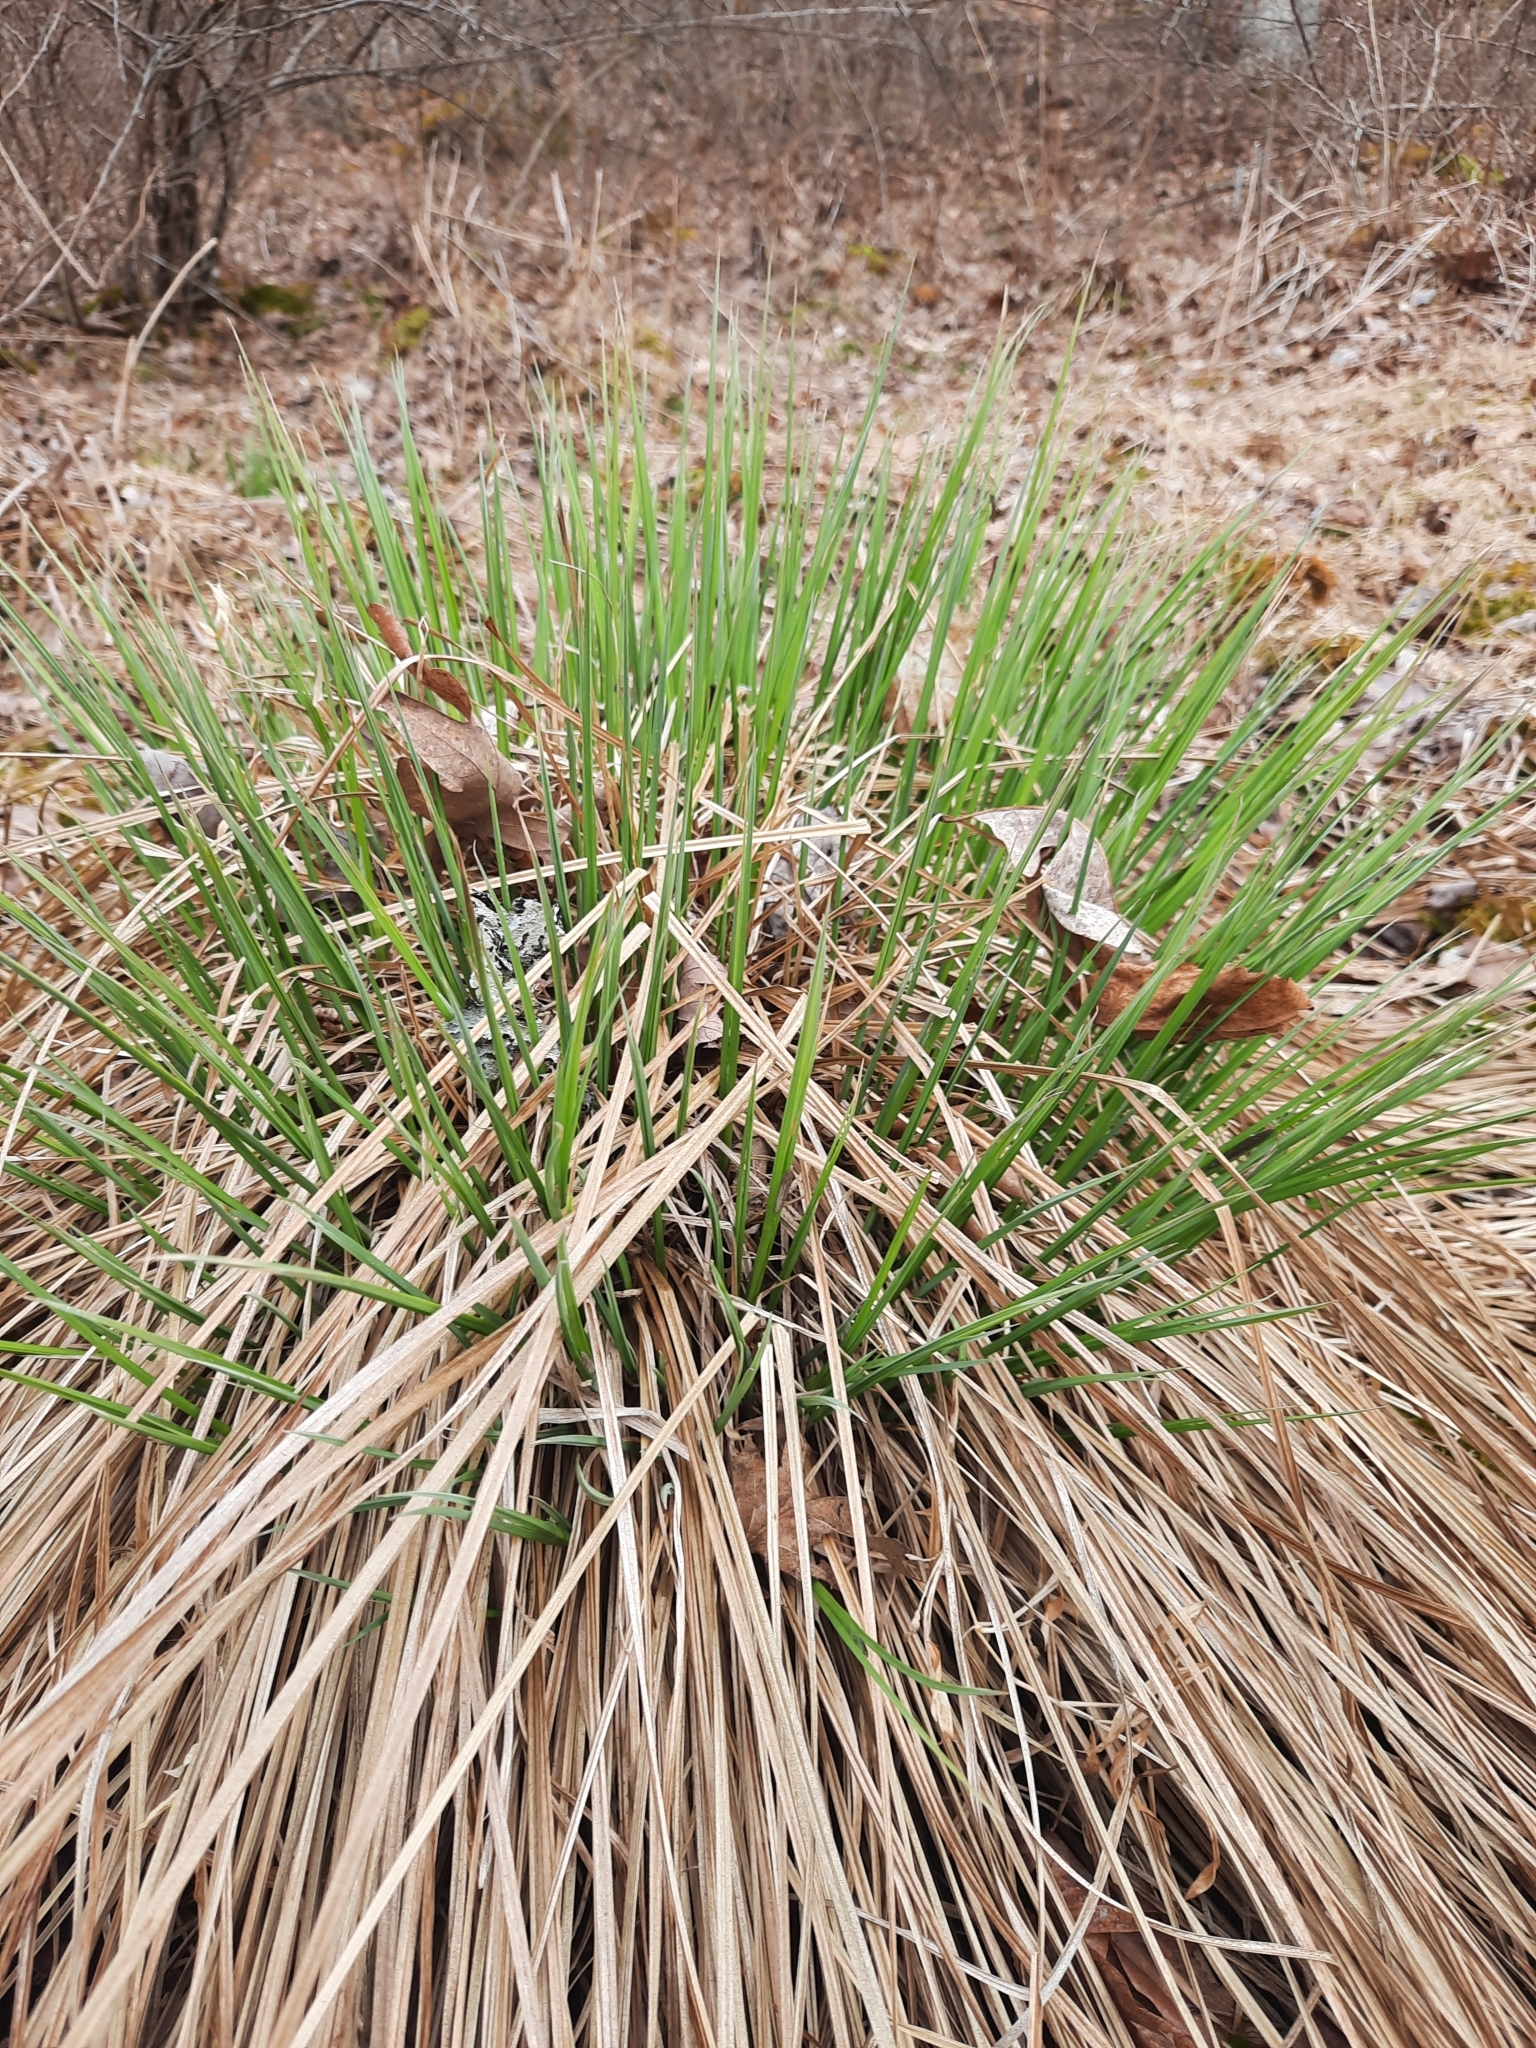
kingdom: Plantae
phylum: Tracheophyta
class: Liliopsida
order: Poales
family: Cyperaceae
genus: Carex
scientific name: Carex stricta
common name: Hummock sedge
